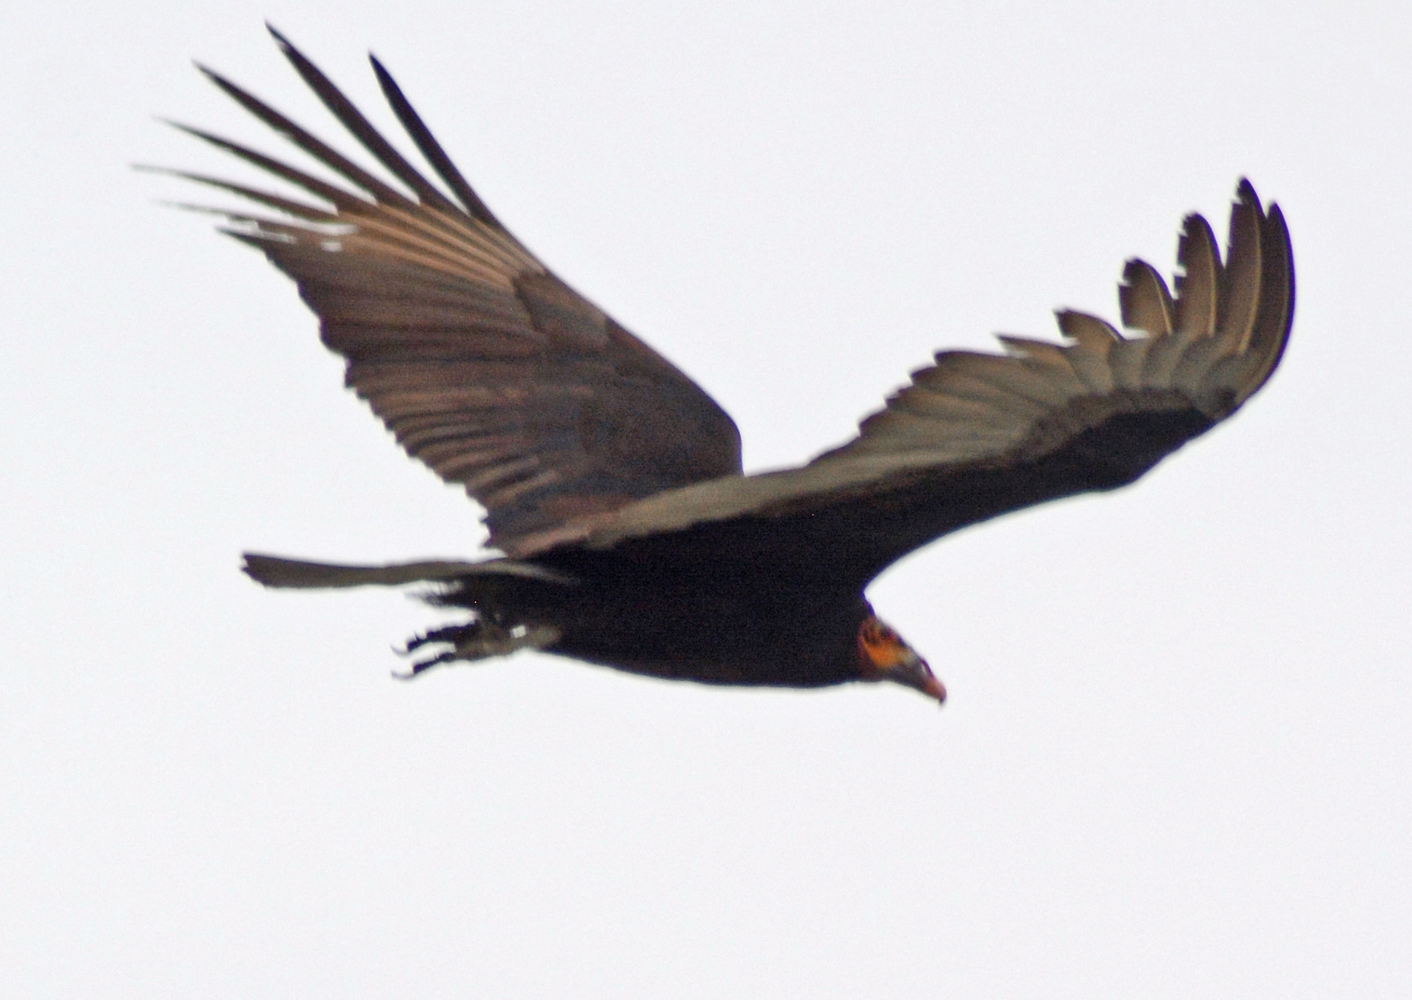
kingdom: Animalia
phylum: Chordata
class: Aves
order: Accipitriformes
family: Cathartidae
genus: Cathartes
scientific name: Cathartes burrovianus
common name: Lesser yellow-headed vulture
